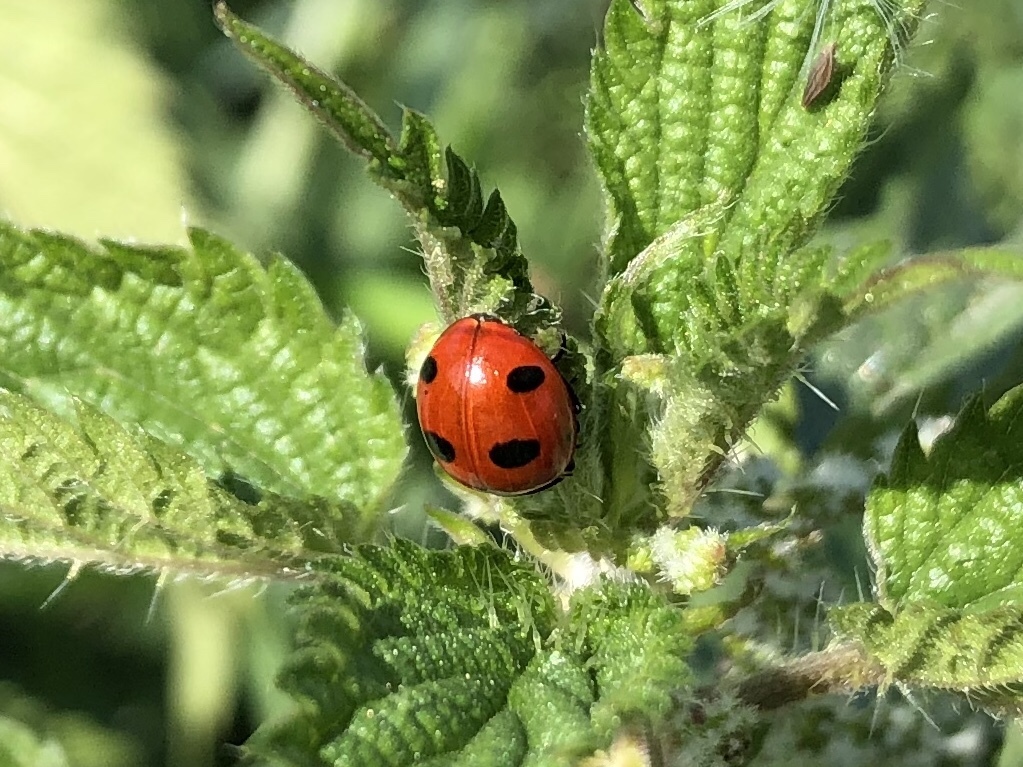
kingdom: Animalia
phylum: Arthropoda
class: Insecta
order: Coleoptera
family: Coccinellidae
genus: Coccinella
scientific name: Coccinella magnifica
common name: Scarce 7-spot ladybird
